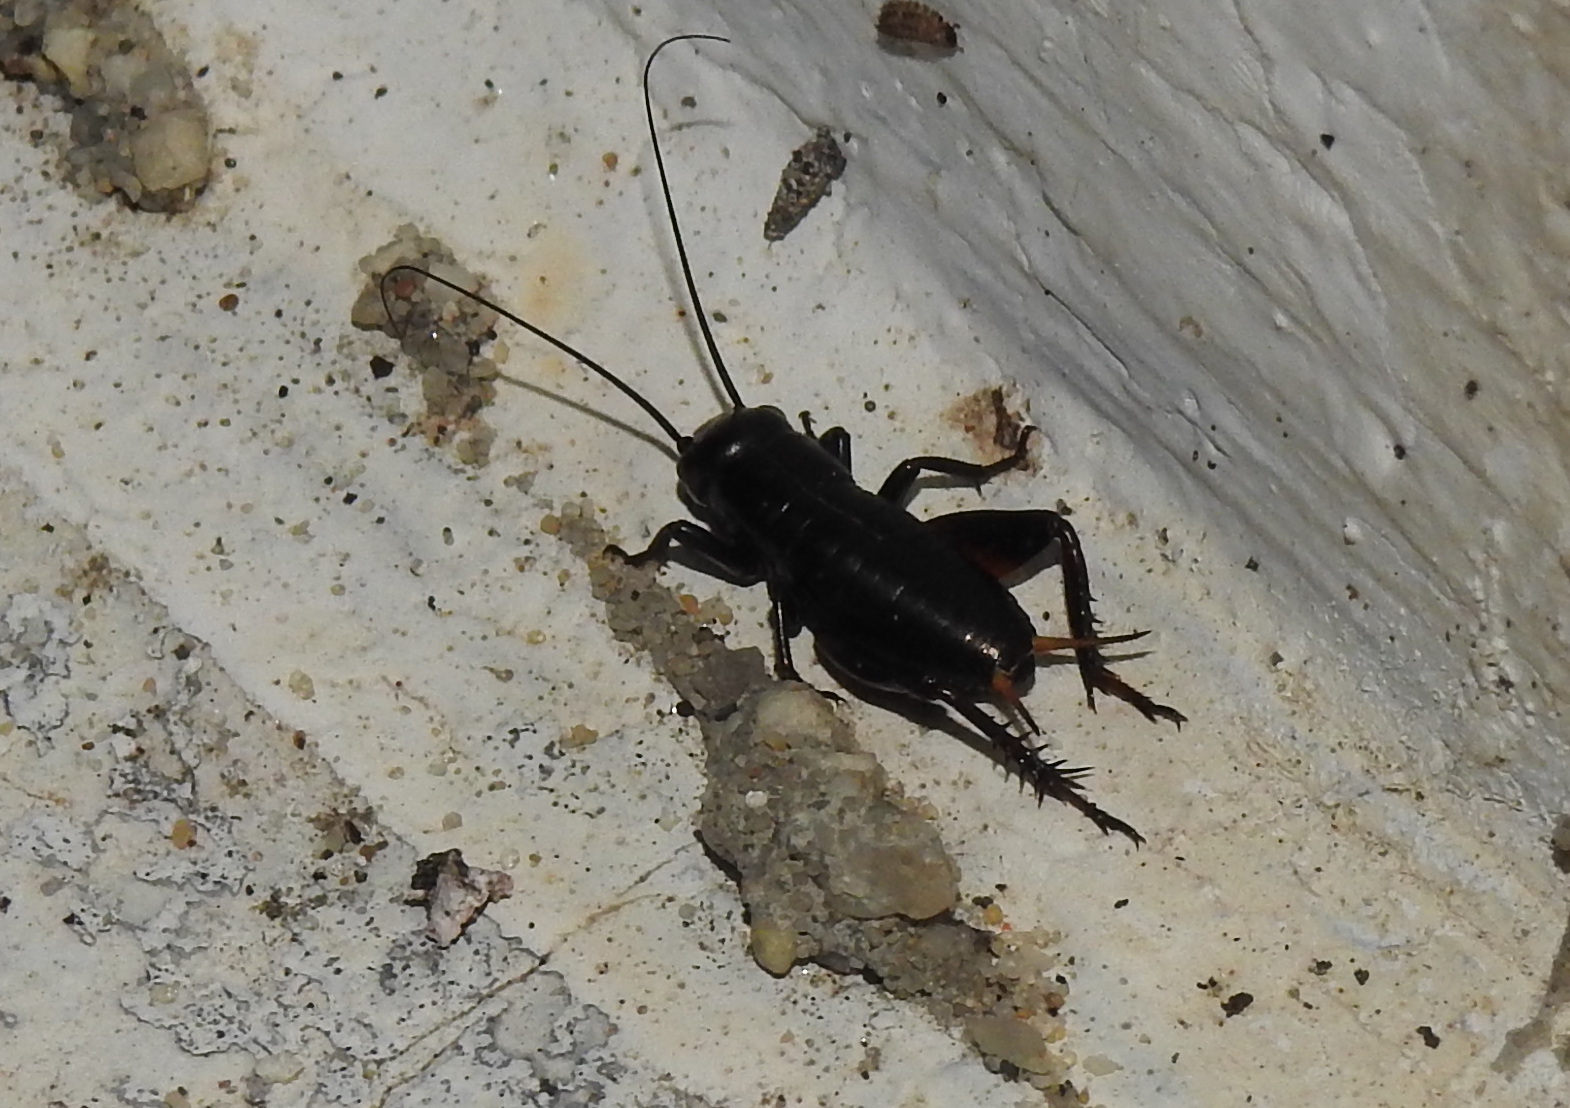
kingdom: Animalia
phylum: Arthropoda
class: Insecta
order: Orthoptera
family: Gryllidae
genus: Gryllus
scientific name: Gryllus campestris
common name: Field cricket
